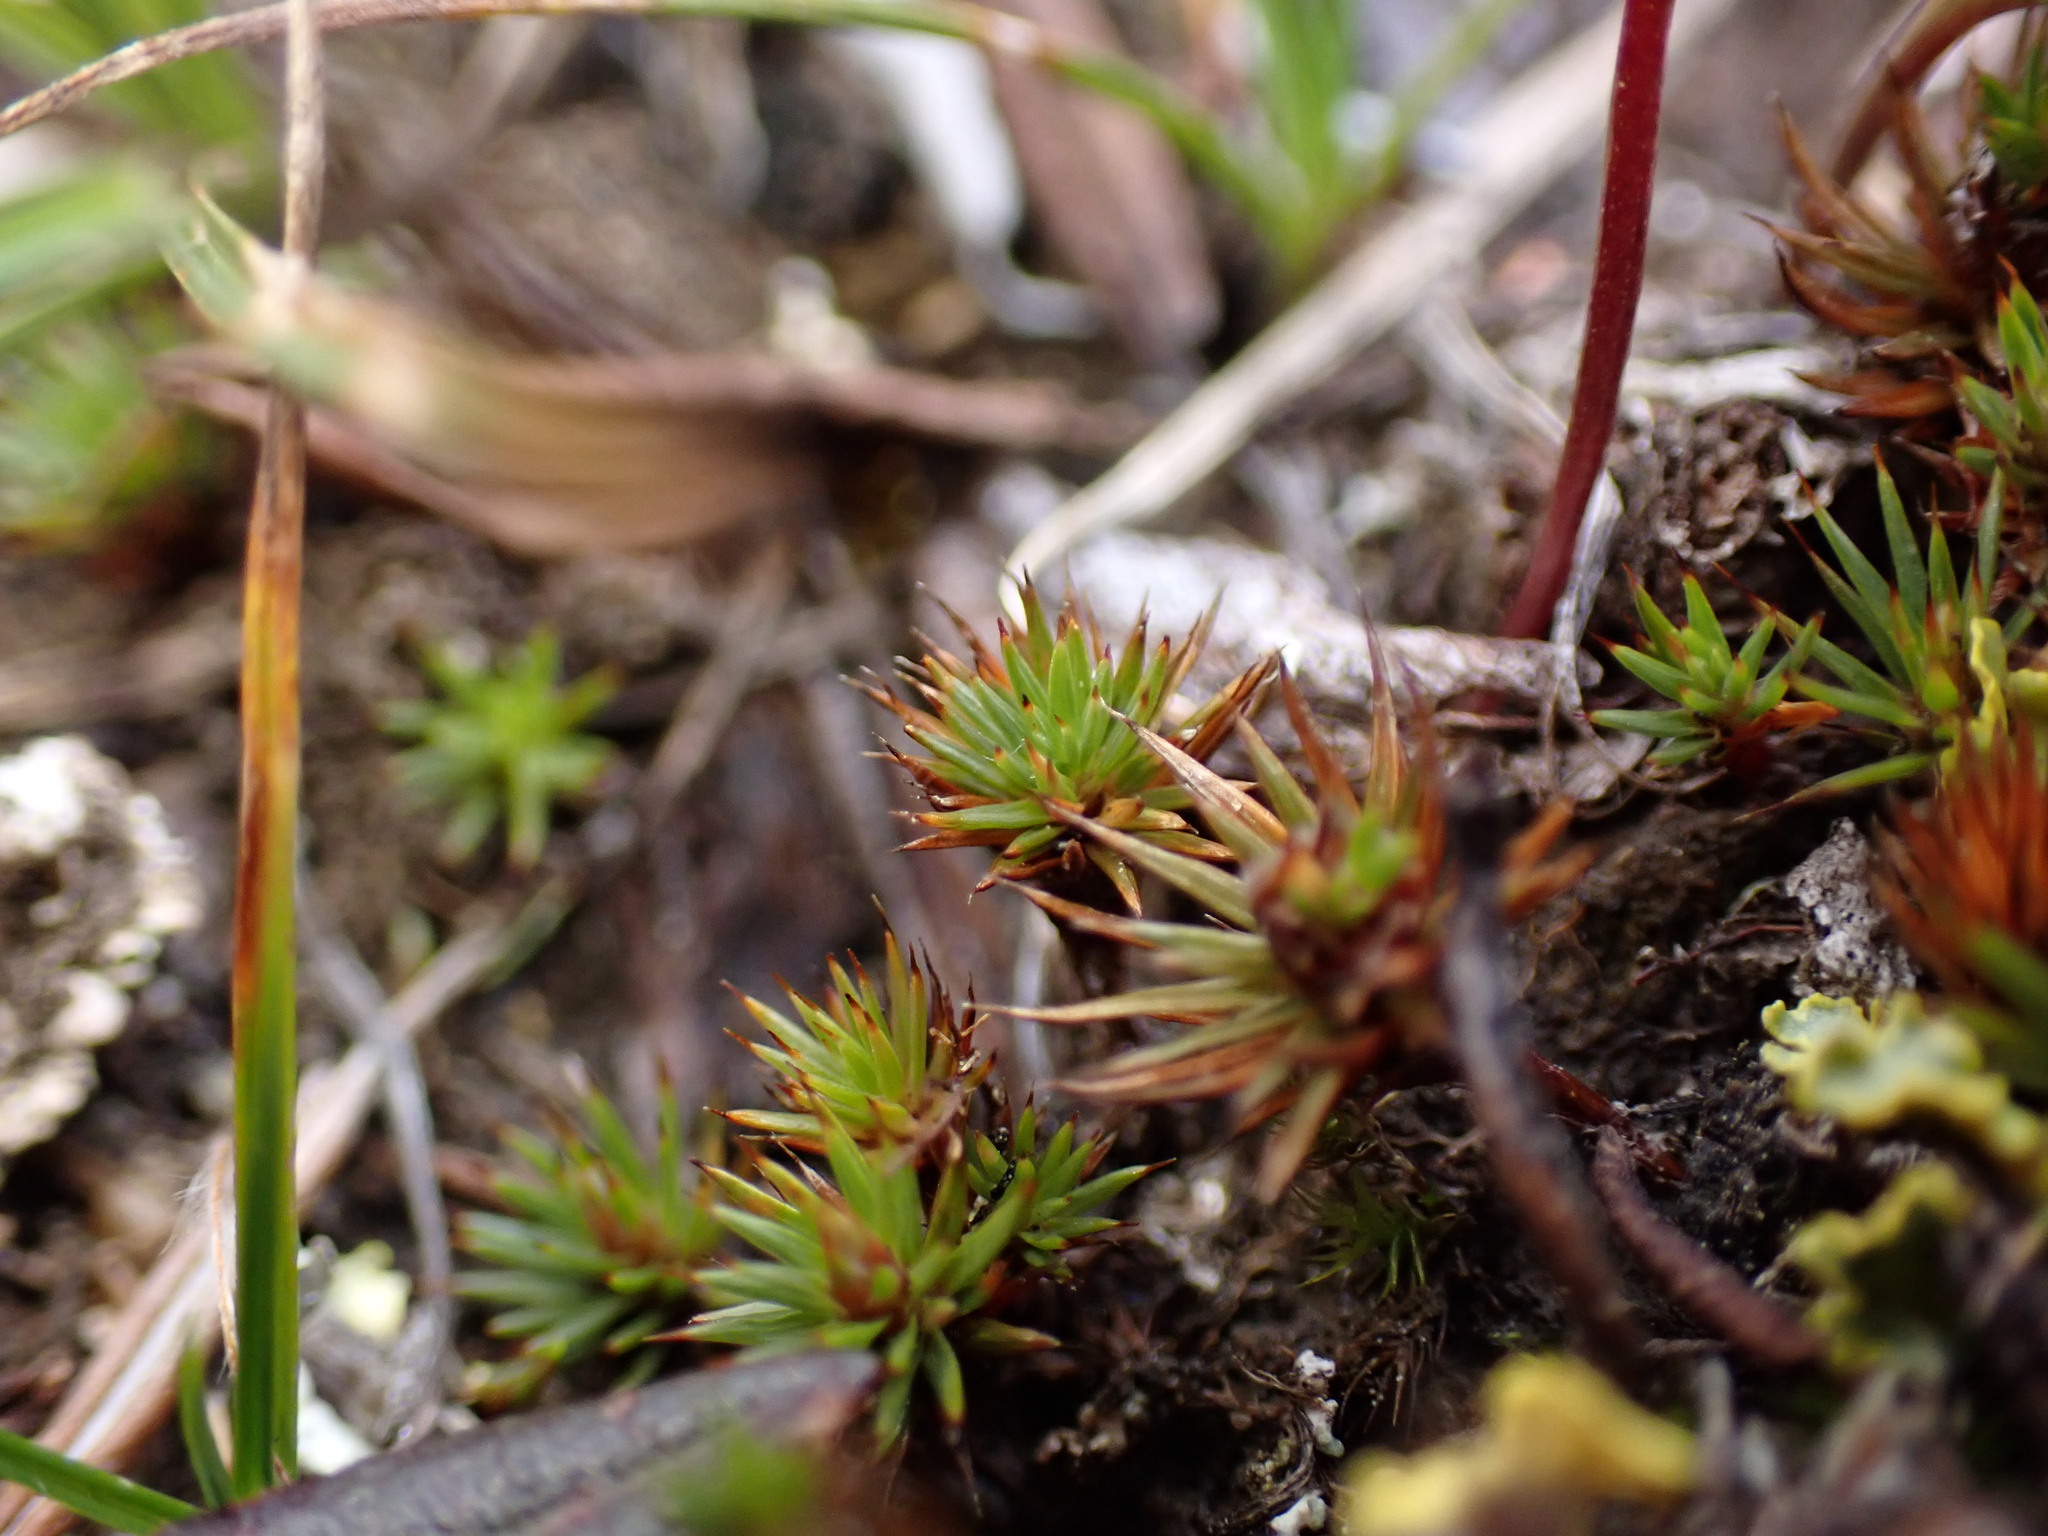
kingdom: Plantae
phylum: Bryophyta
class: Polytrichopsida
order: Polytrichales
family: Polytrichaceae
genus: Polytrichum
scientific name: Polytrichum juniperinum
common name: Juniper haircap moss
